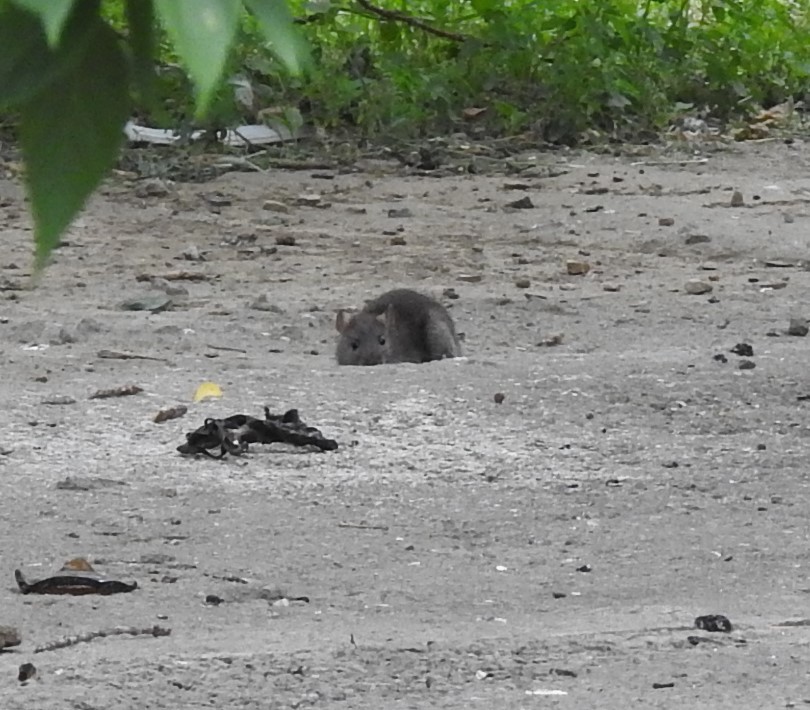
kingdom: Animalia
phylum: Chordata
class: Mammalia
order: Rodentia
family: Muridae
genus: Rattus
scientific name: Rattus norvegicus
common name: Brown rat
